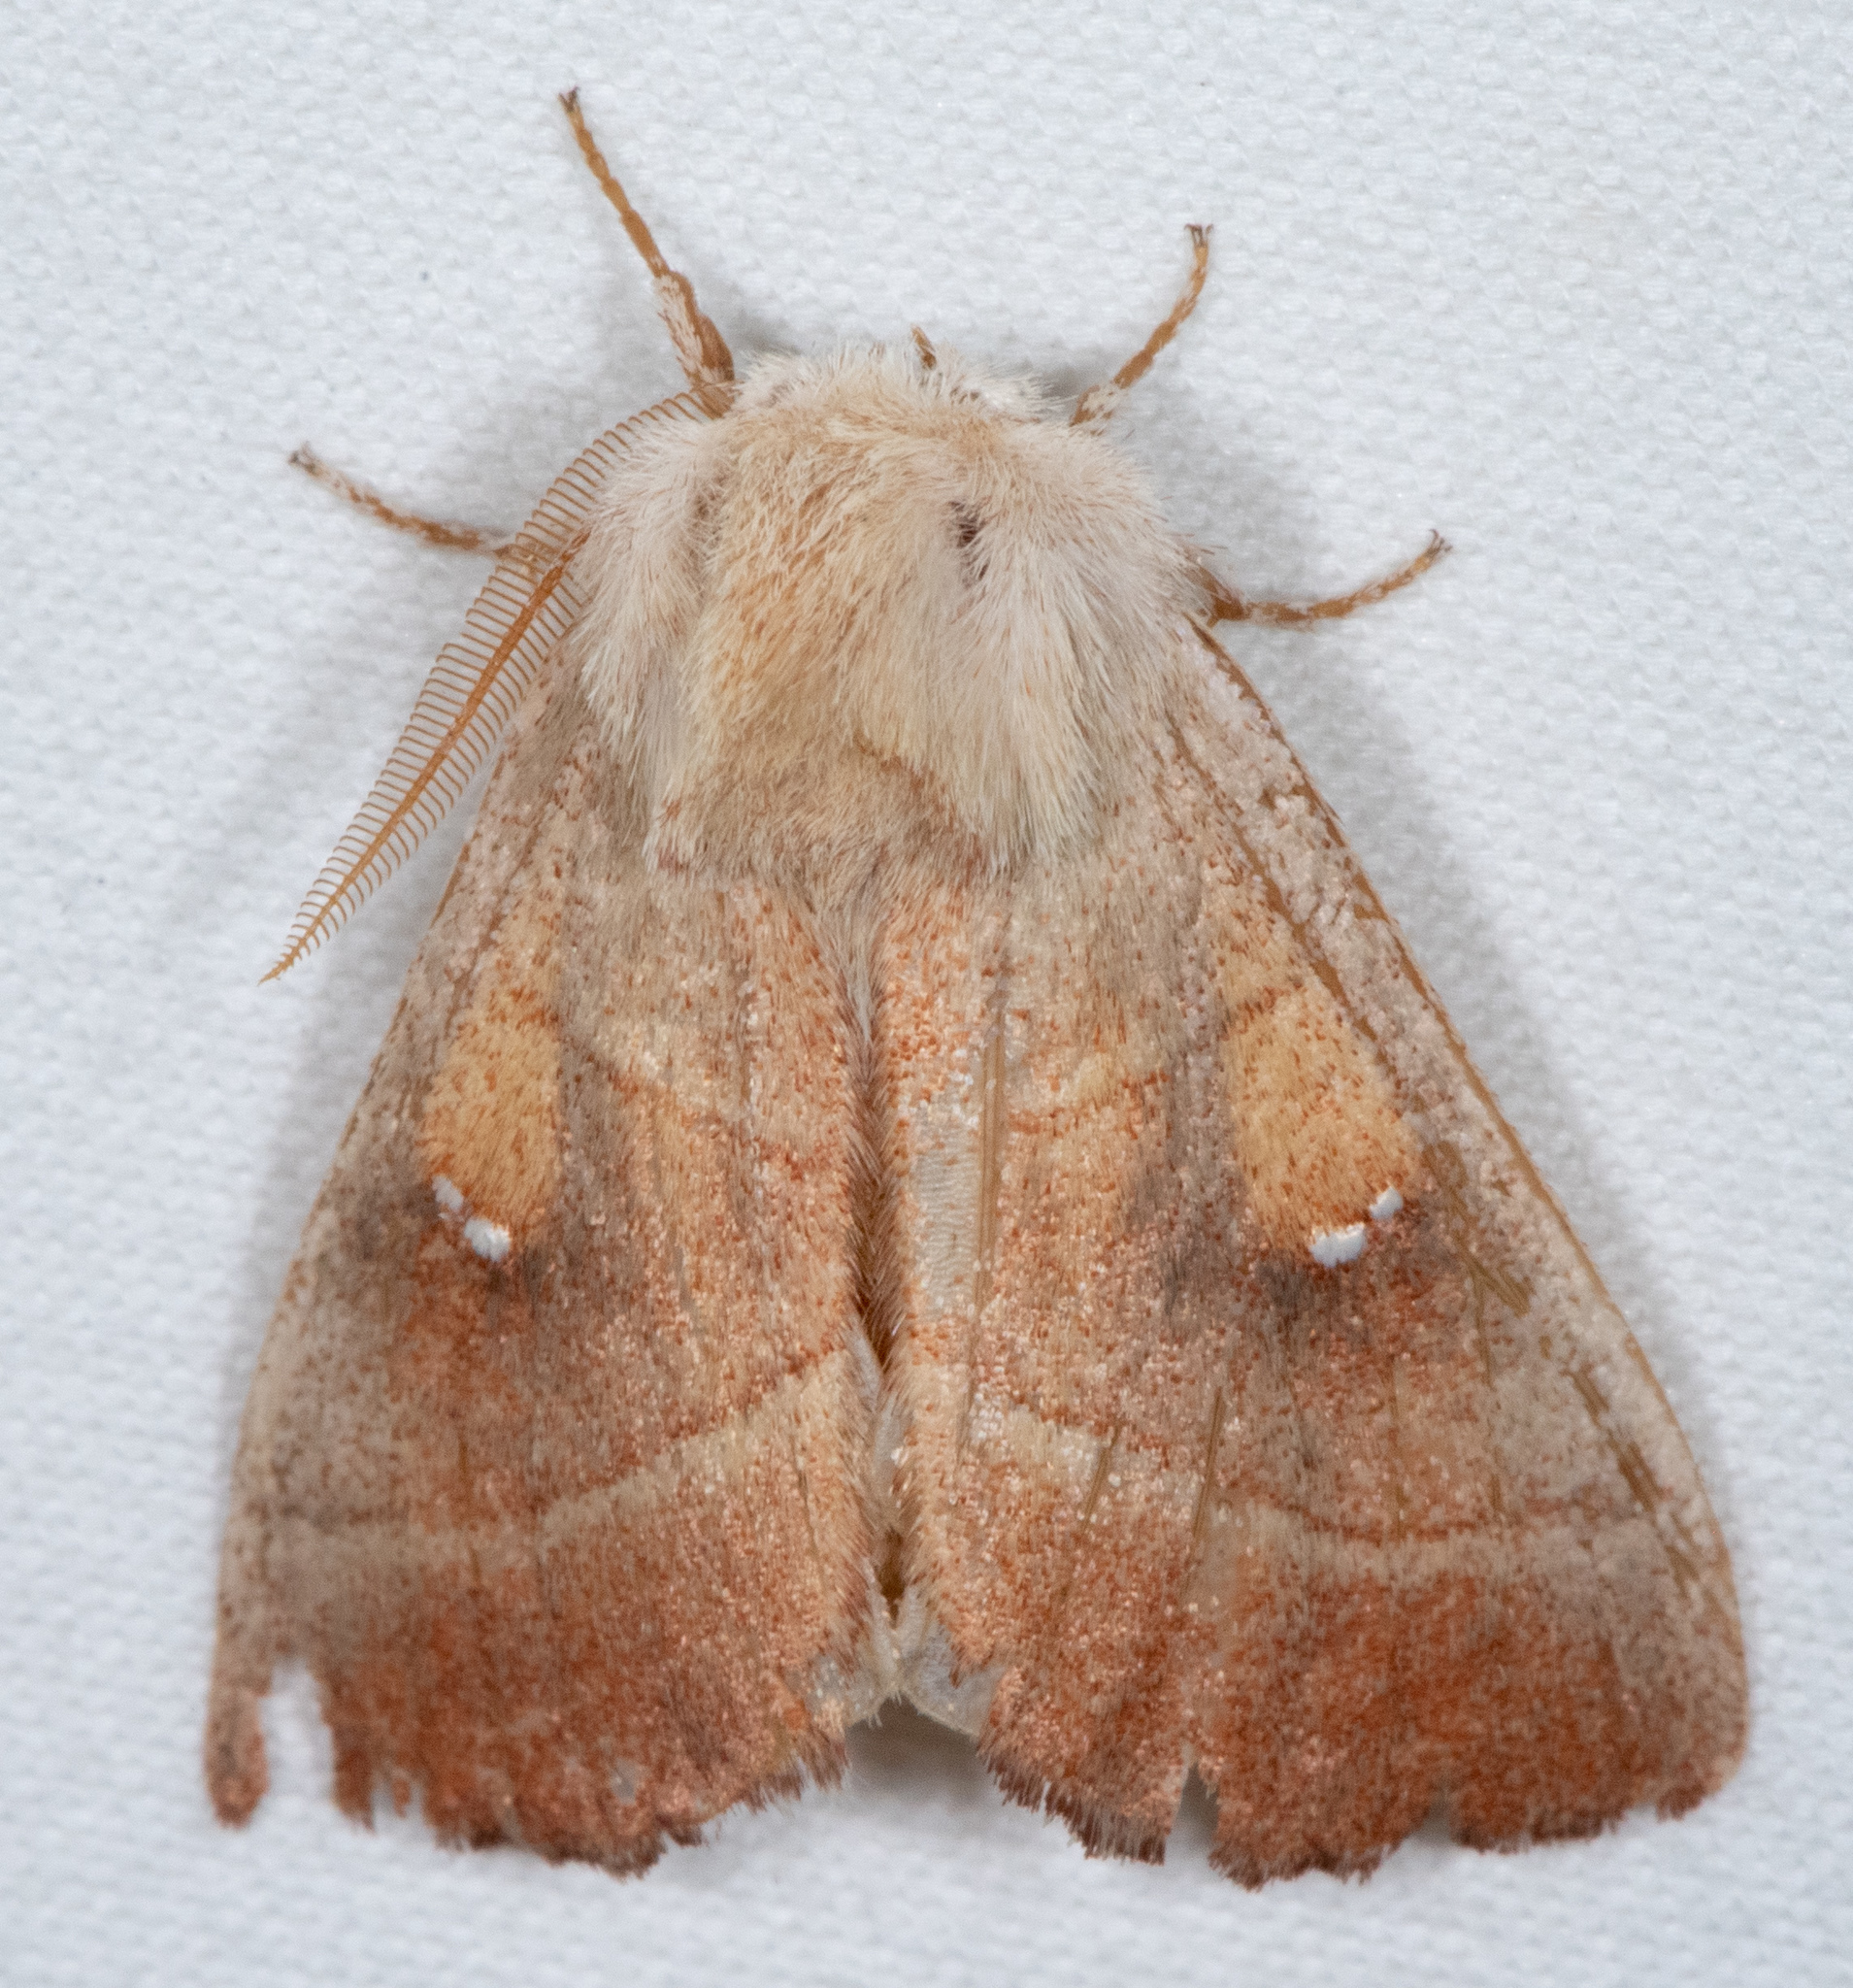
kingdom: Animalia
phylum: Arthropoda
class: Insecta
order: Lepidoptera
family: Notodontidae
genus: Nadata
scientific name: Nadata gibbosa
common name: White-dotted prominent
